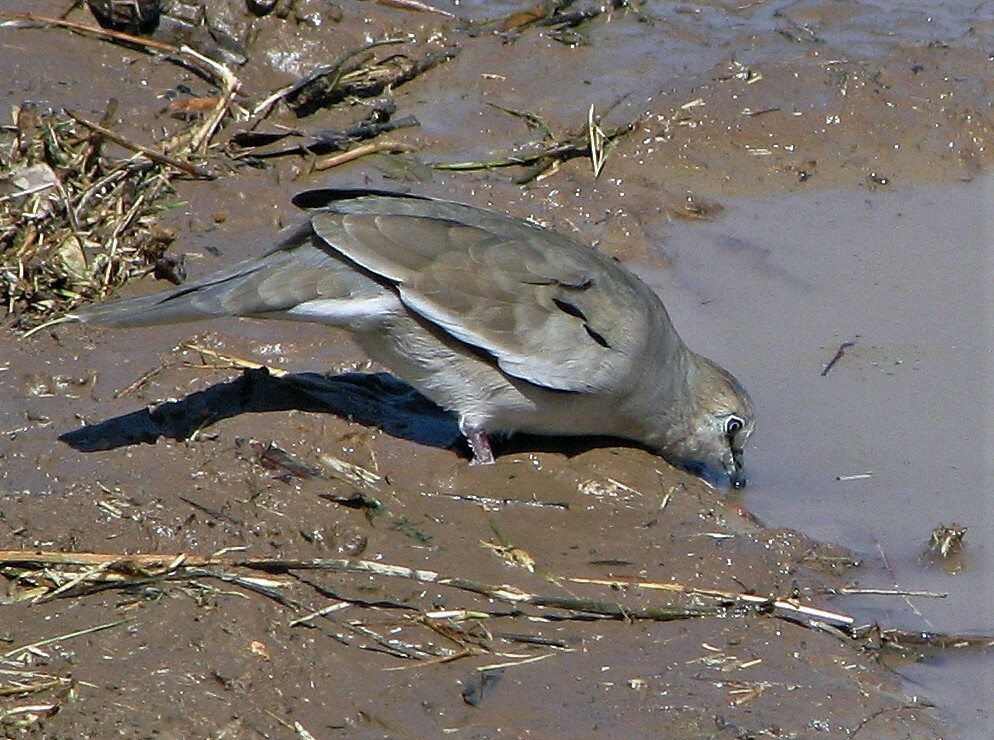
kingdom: Animalia
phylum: Chordata
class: Aves
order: Columbiformes
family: Columbidae
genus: Columbina
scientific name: Columbina picui
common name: Picui ground dove
